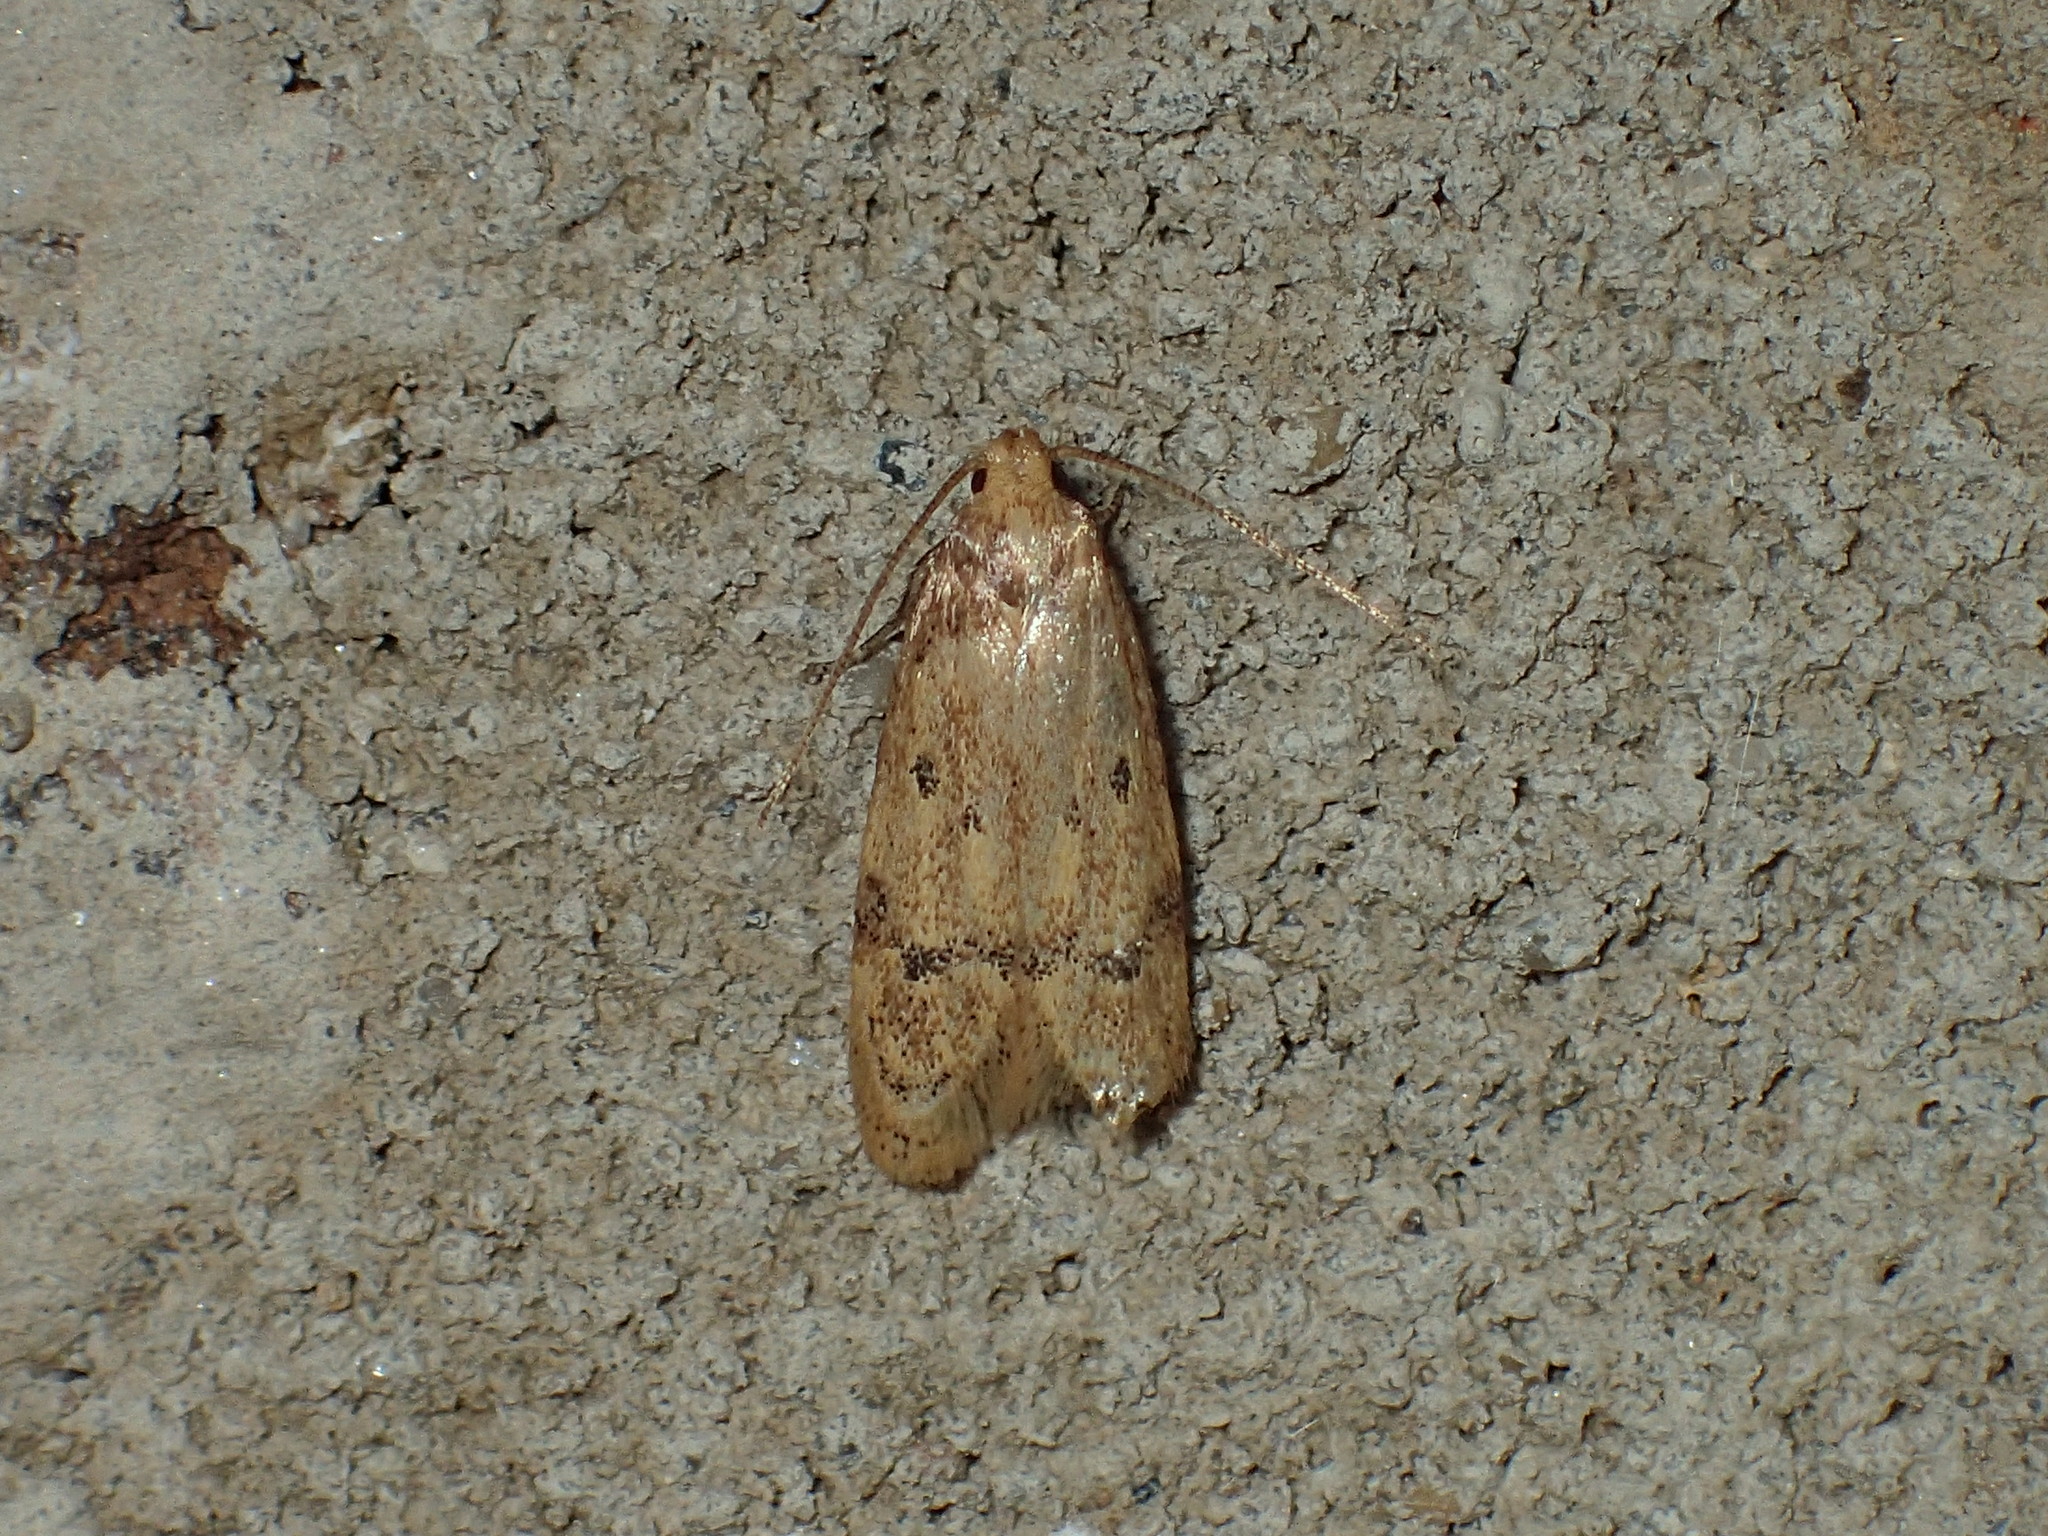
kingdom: Animalia
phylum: Arthropoda
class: Insecta
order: Lepidoptera
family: Autostichidae
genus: Gerdana
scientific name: Gerdana caritella
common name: Gerdana moth
